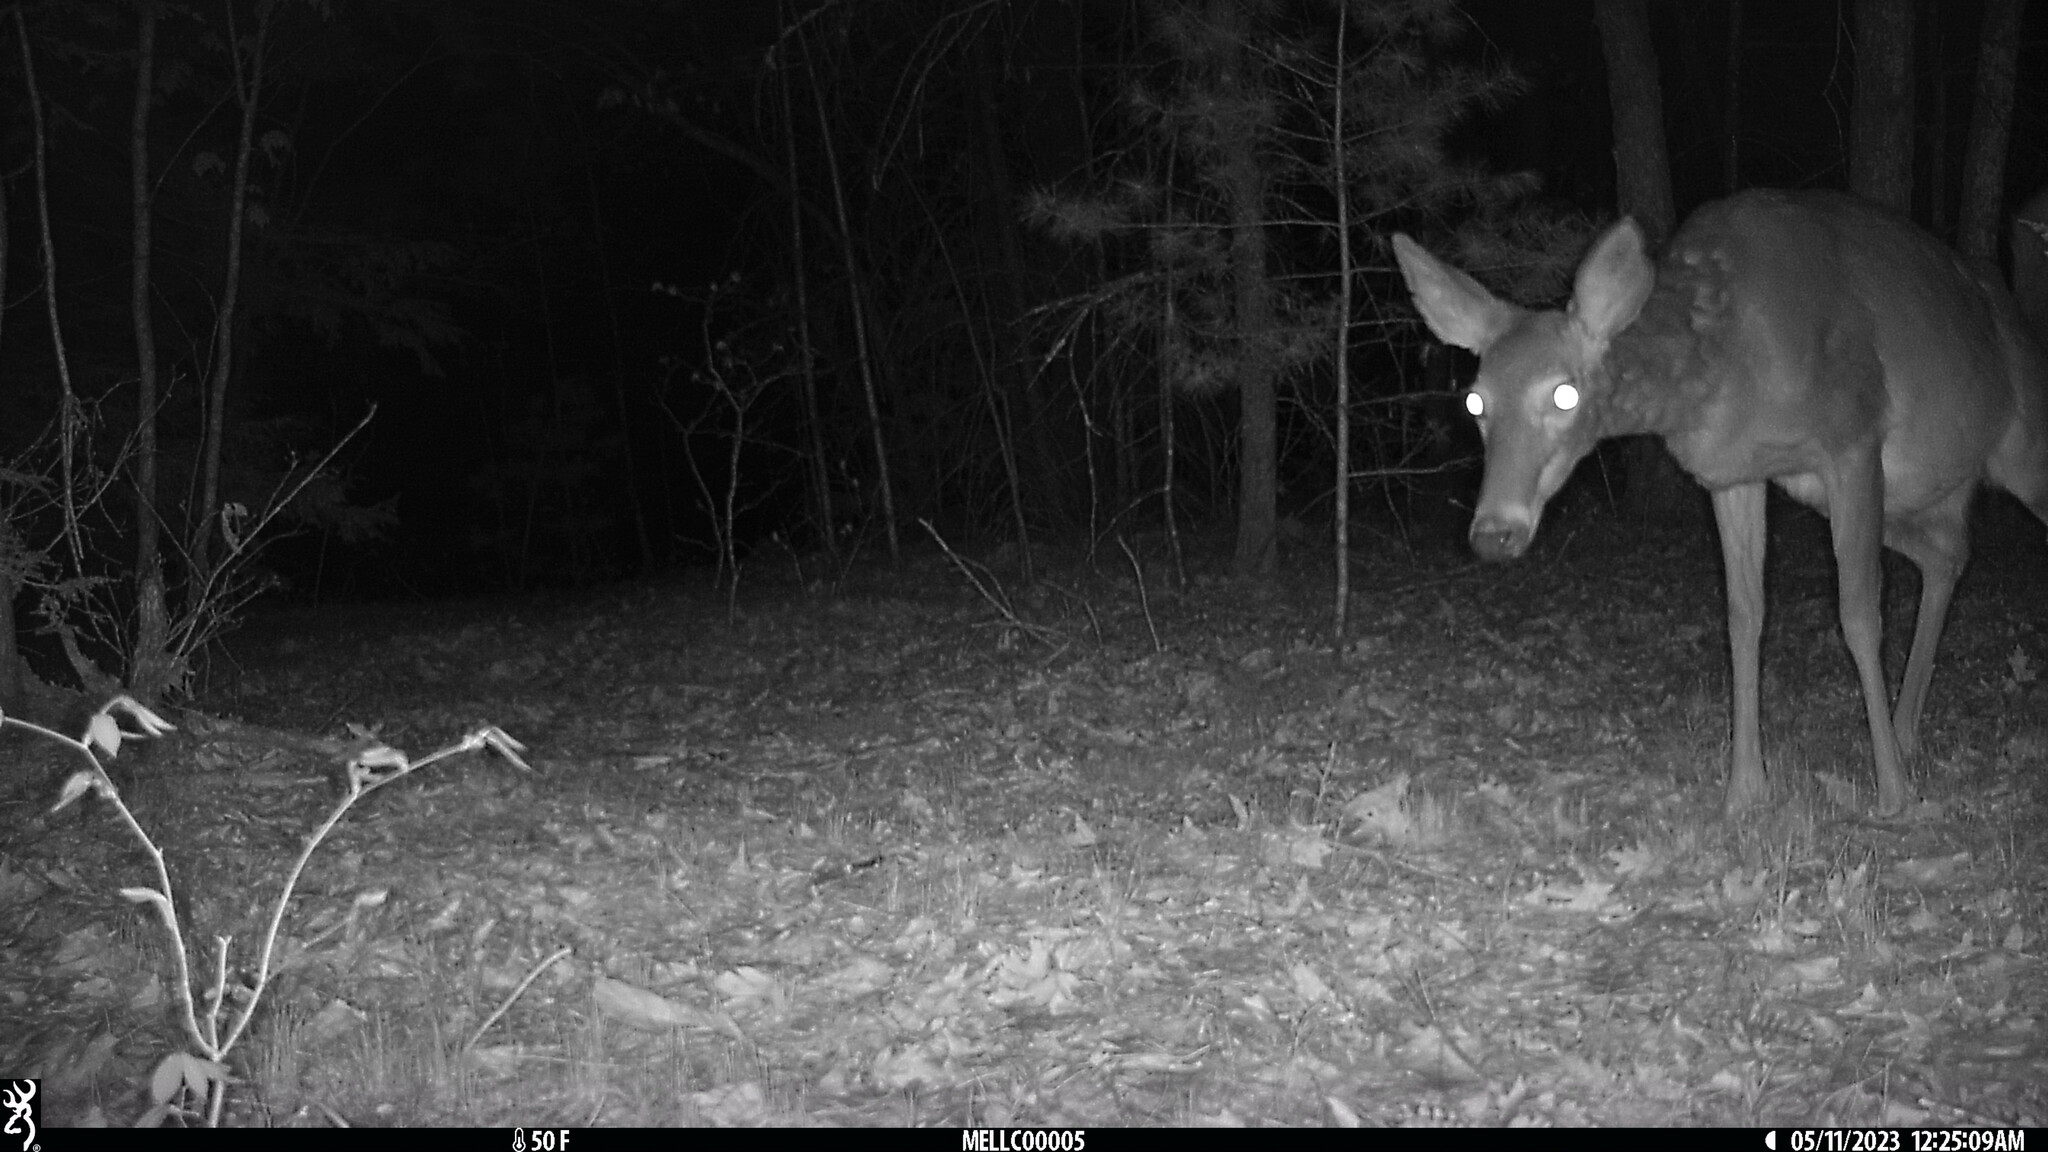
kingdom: Animalia
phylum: Chordata
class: Mammalia
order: Artiodactyla
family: Cervidae
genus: Odocoileus
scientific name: Odocoileus virginianus
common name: White-tailed deer
